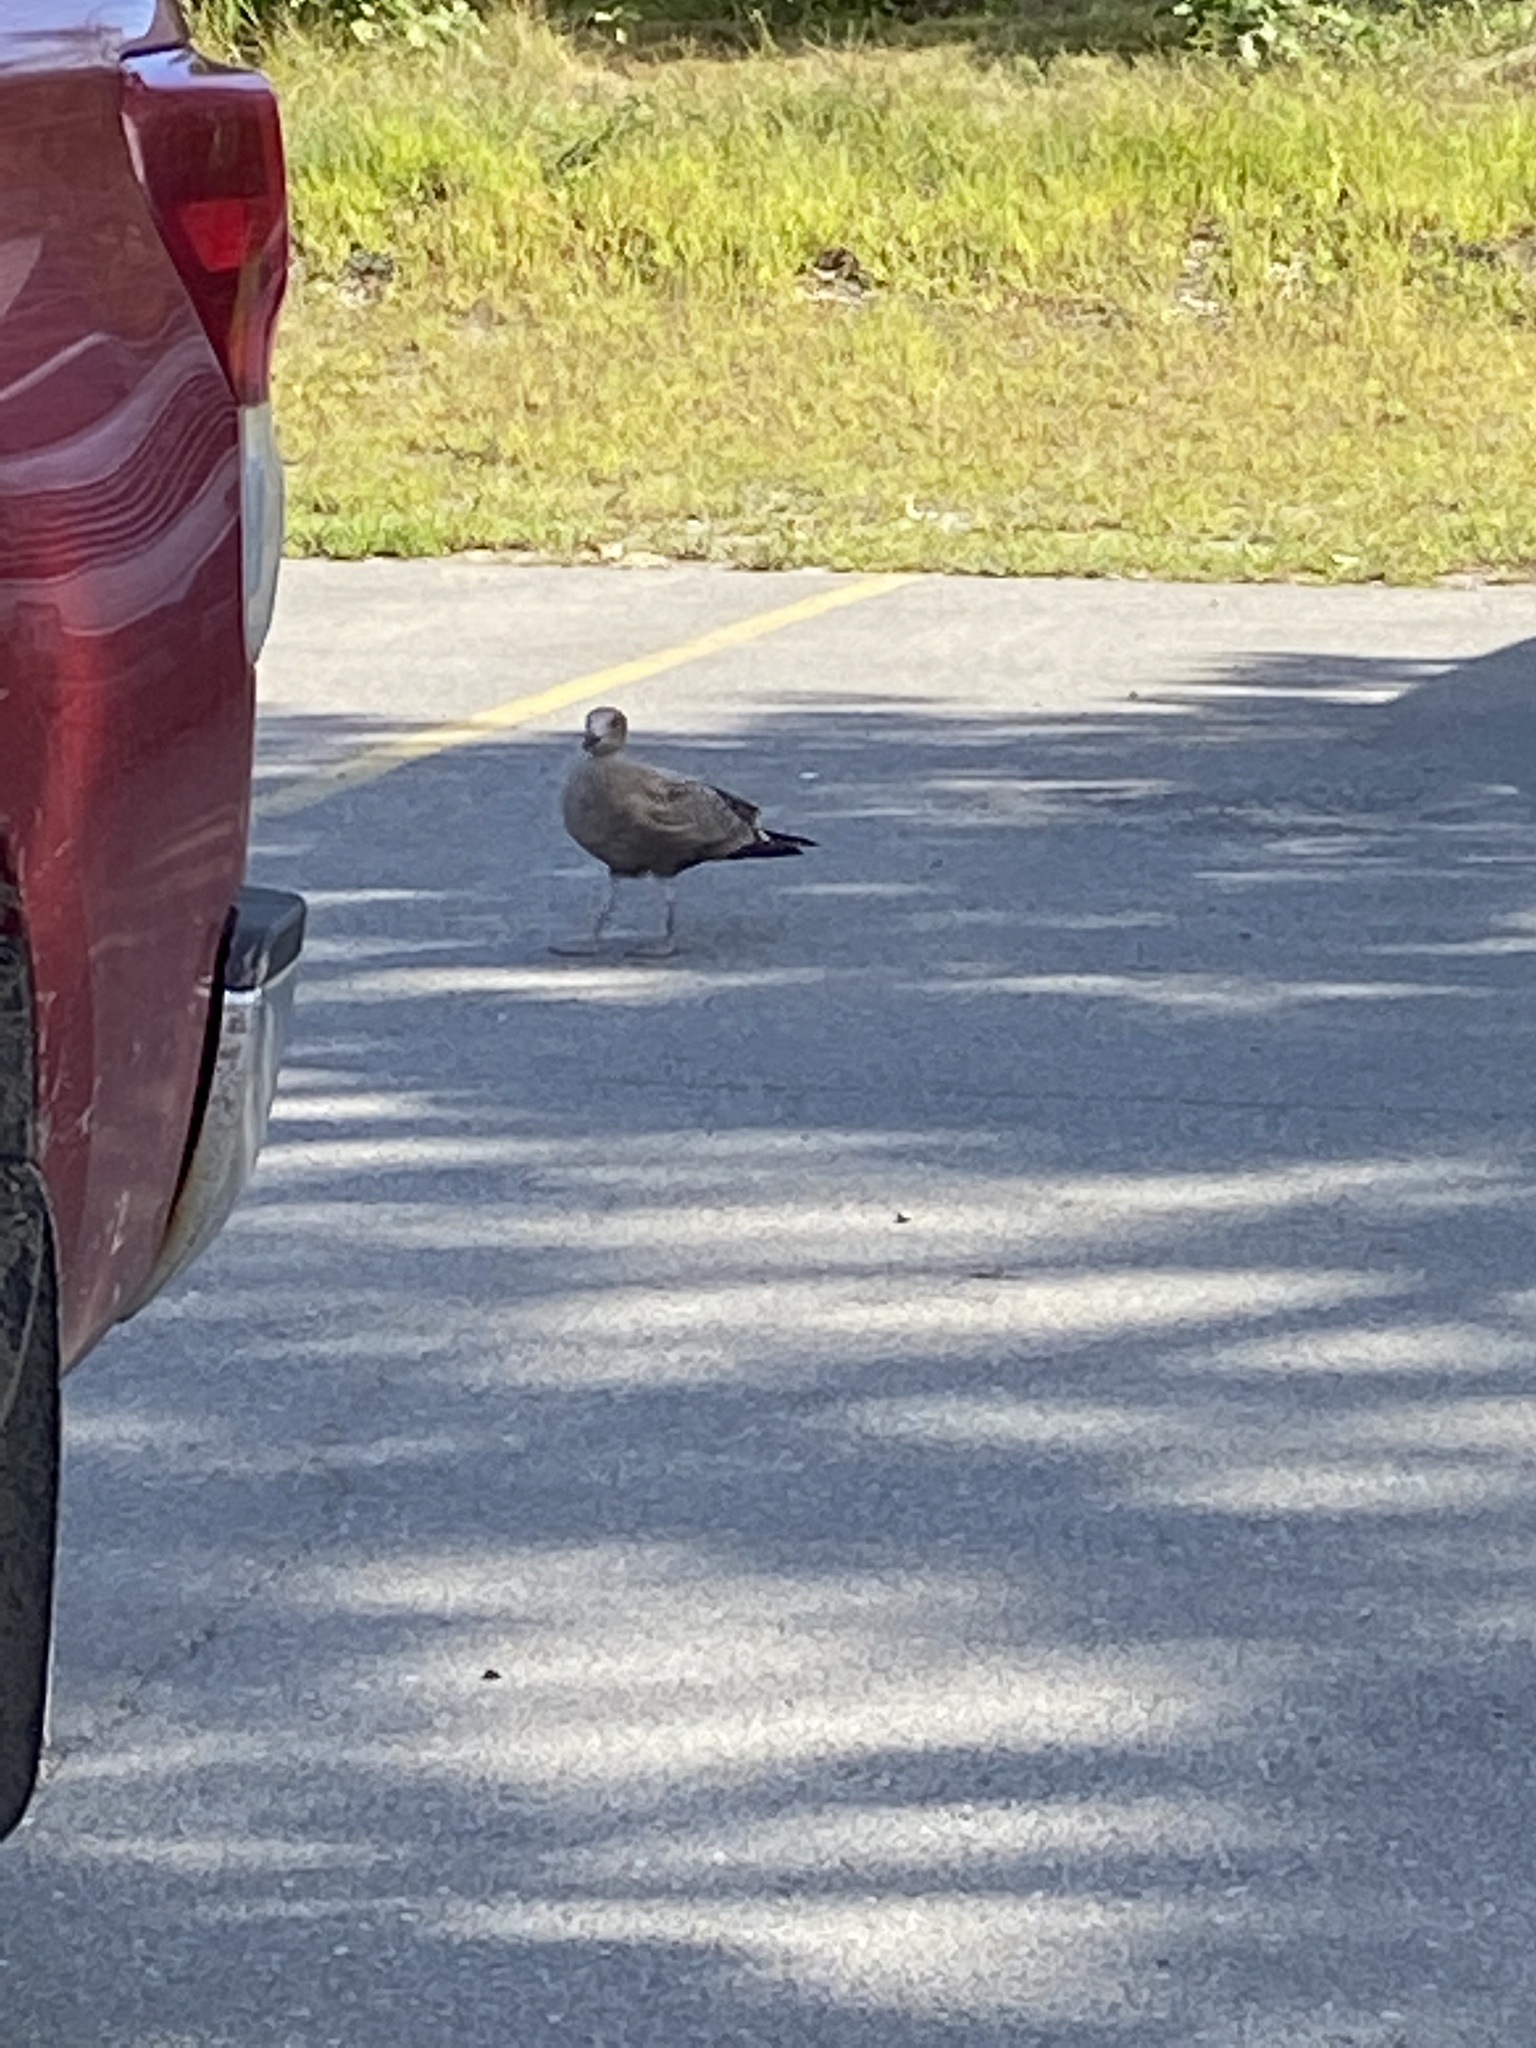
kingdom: Animalia
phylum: Chordata
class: Aves
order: Charadriiformes
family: Laridae
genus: Larus
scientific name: Larus argentatus
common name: Herring gull
